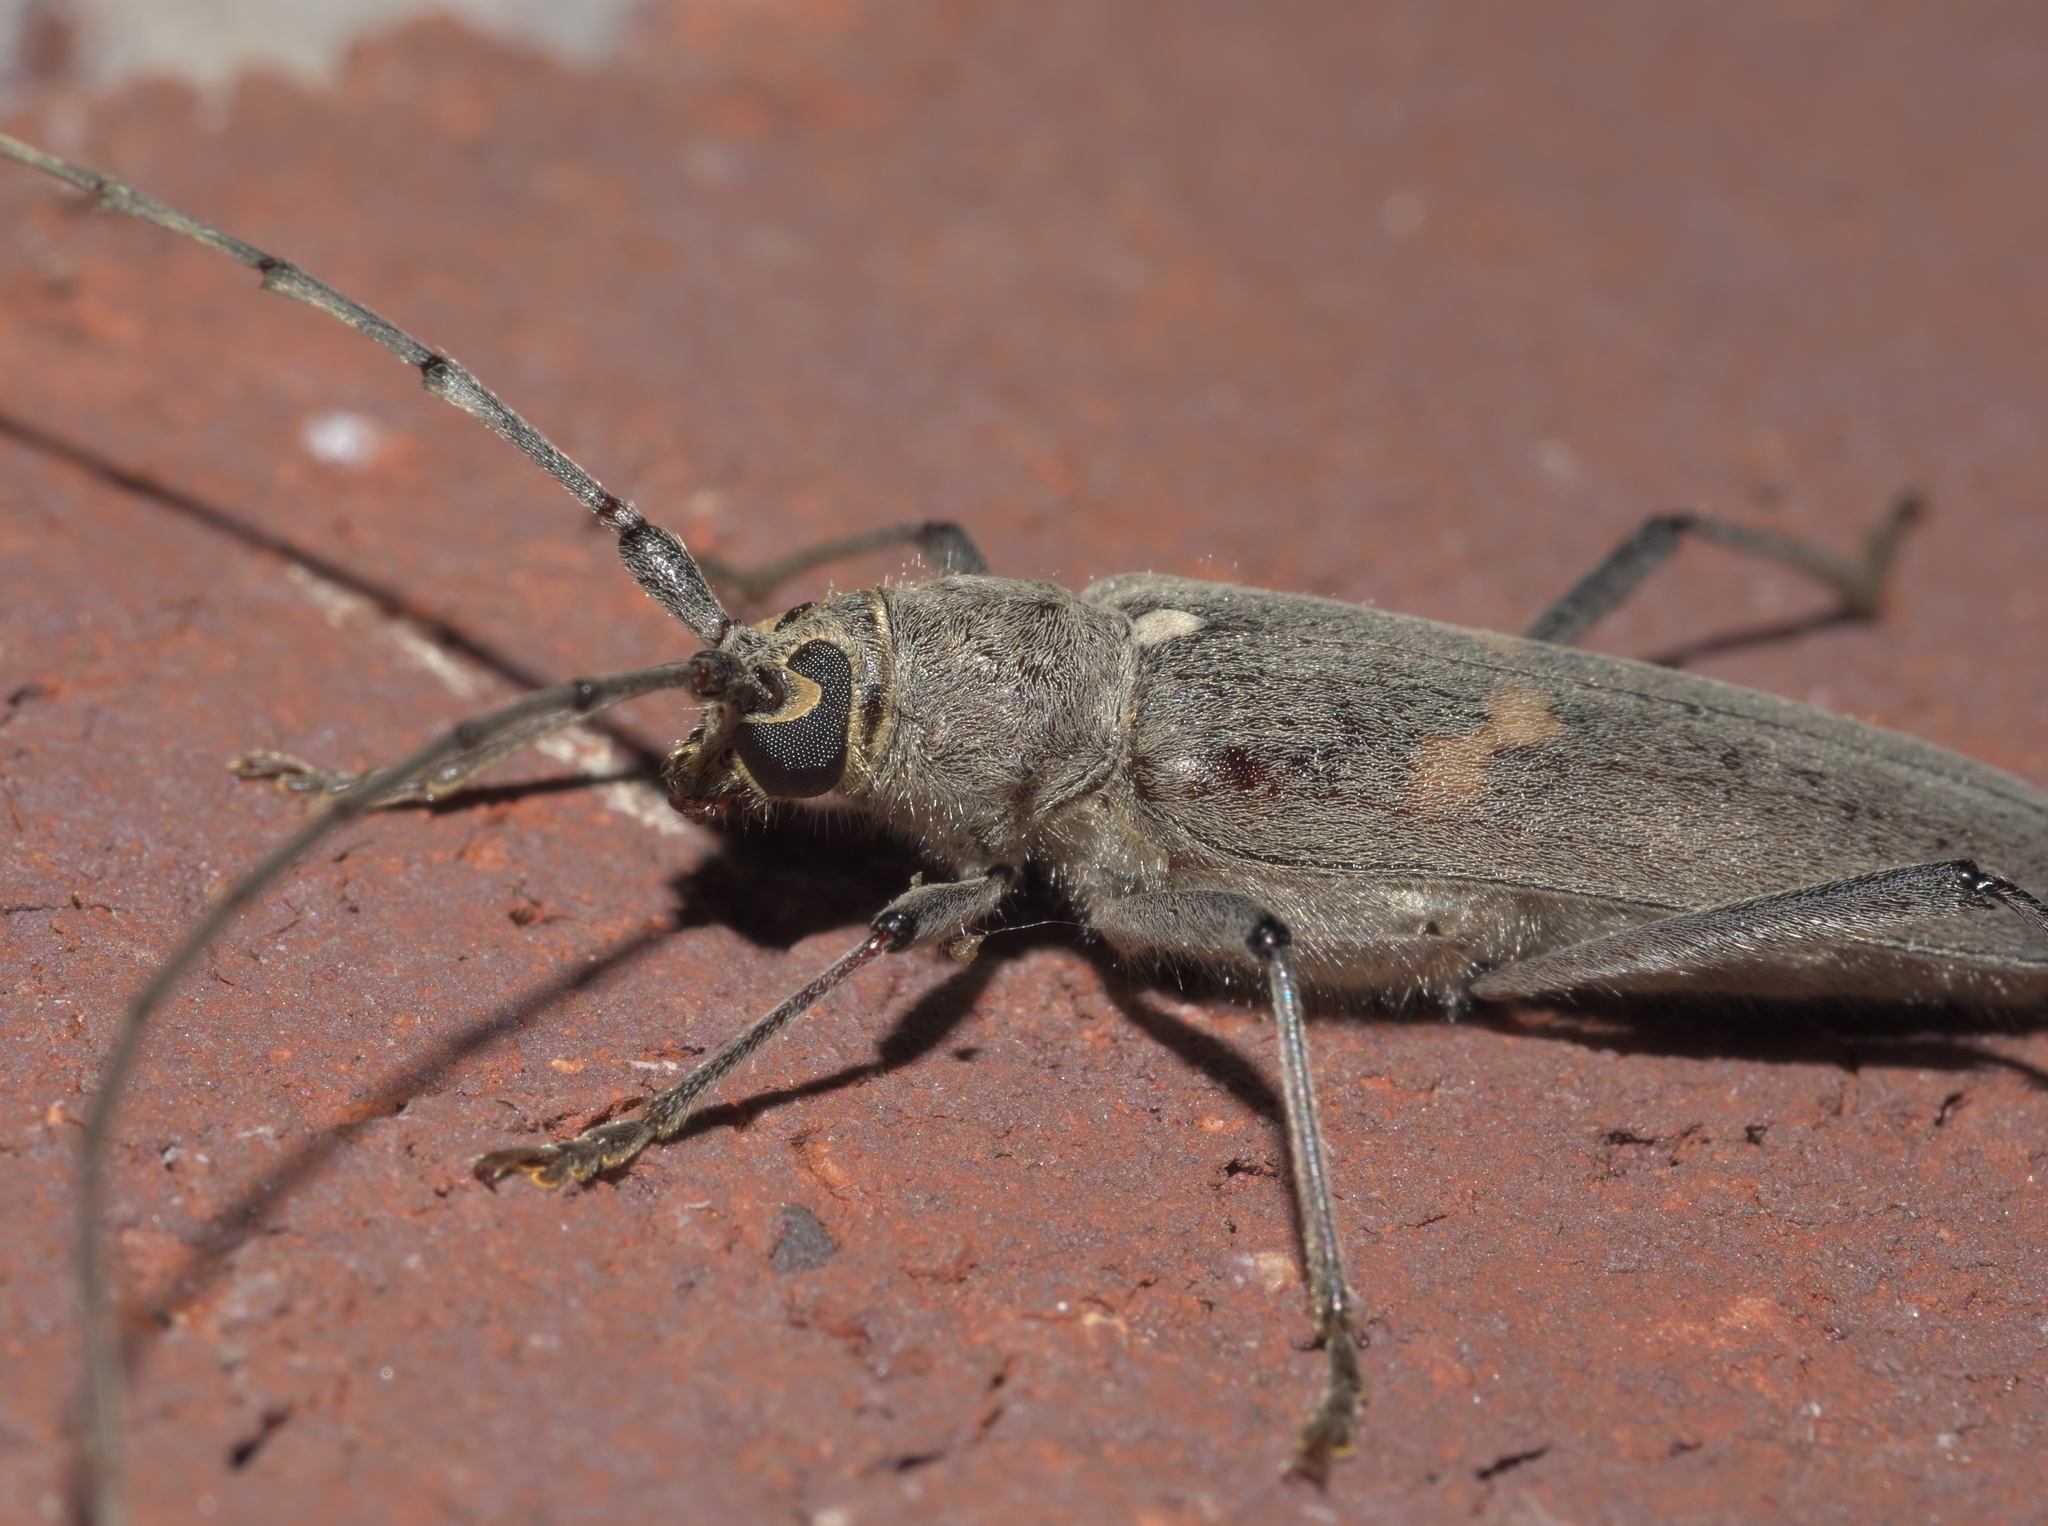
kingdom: Animalia
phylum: Arthropoda
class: Insecta
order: Coleoptera
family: Cerambycidae
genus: Knulliana
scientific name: Knulliana cincta
